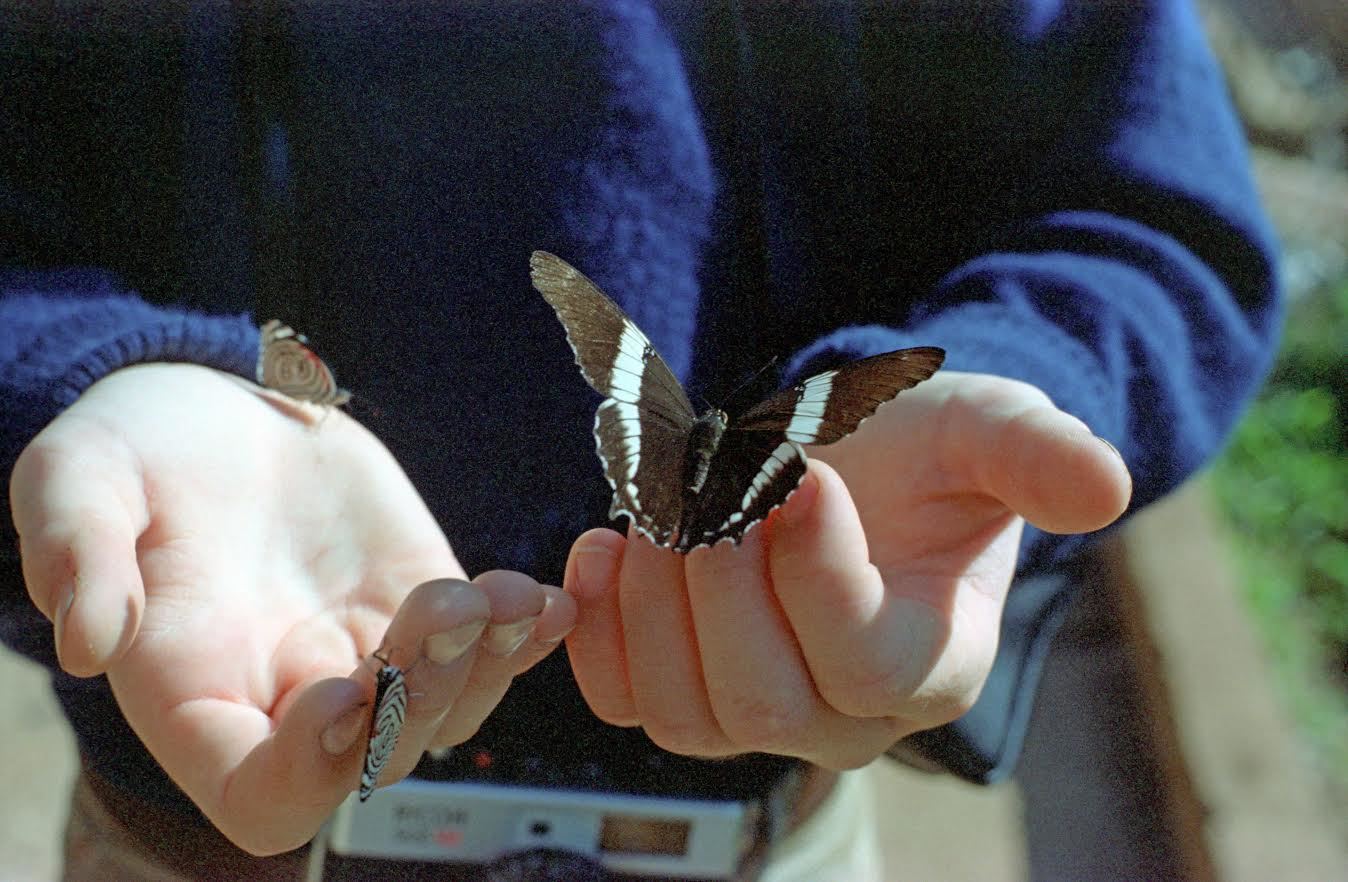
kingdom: Animalia
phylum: Arthropoda
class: Insecta
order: Lepidoptera
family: Nymphalidae
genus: Siproeta
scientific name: Siproeta epaphus
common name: Rusty-tipped page
